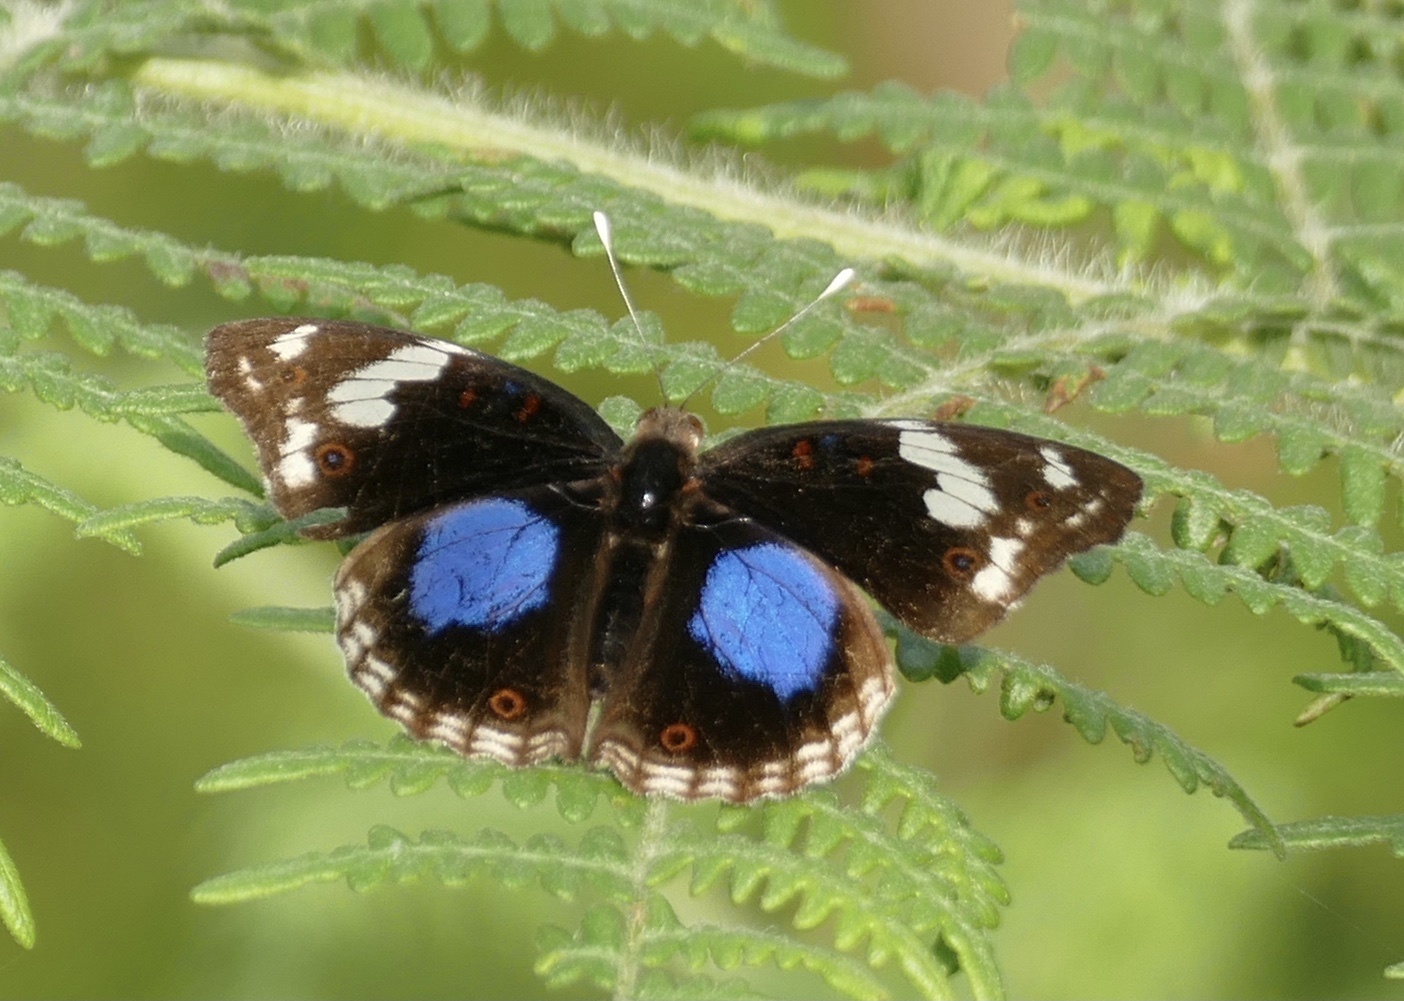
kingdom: Animalia
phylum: Arthropoda
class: Insecta
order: Lepidoptera
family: Nymphalidae
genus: Junonia
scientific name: Junonia oenone
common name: Dark blue pansy
